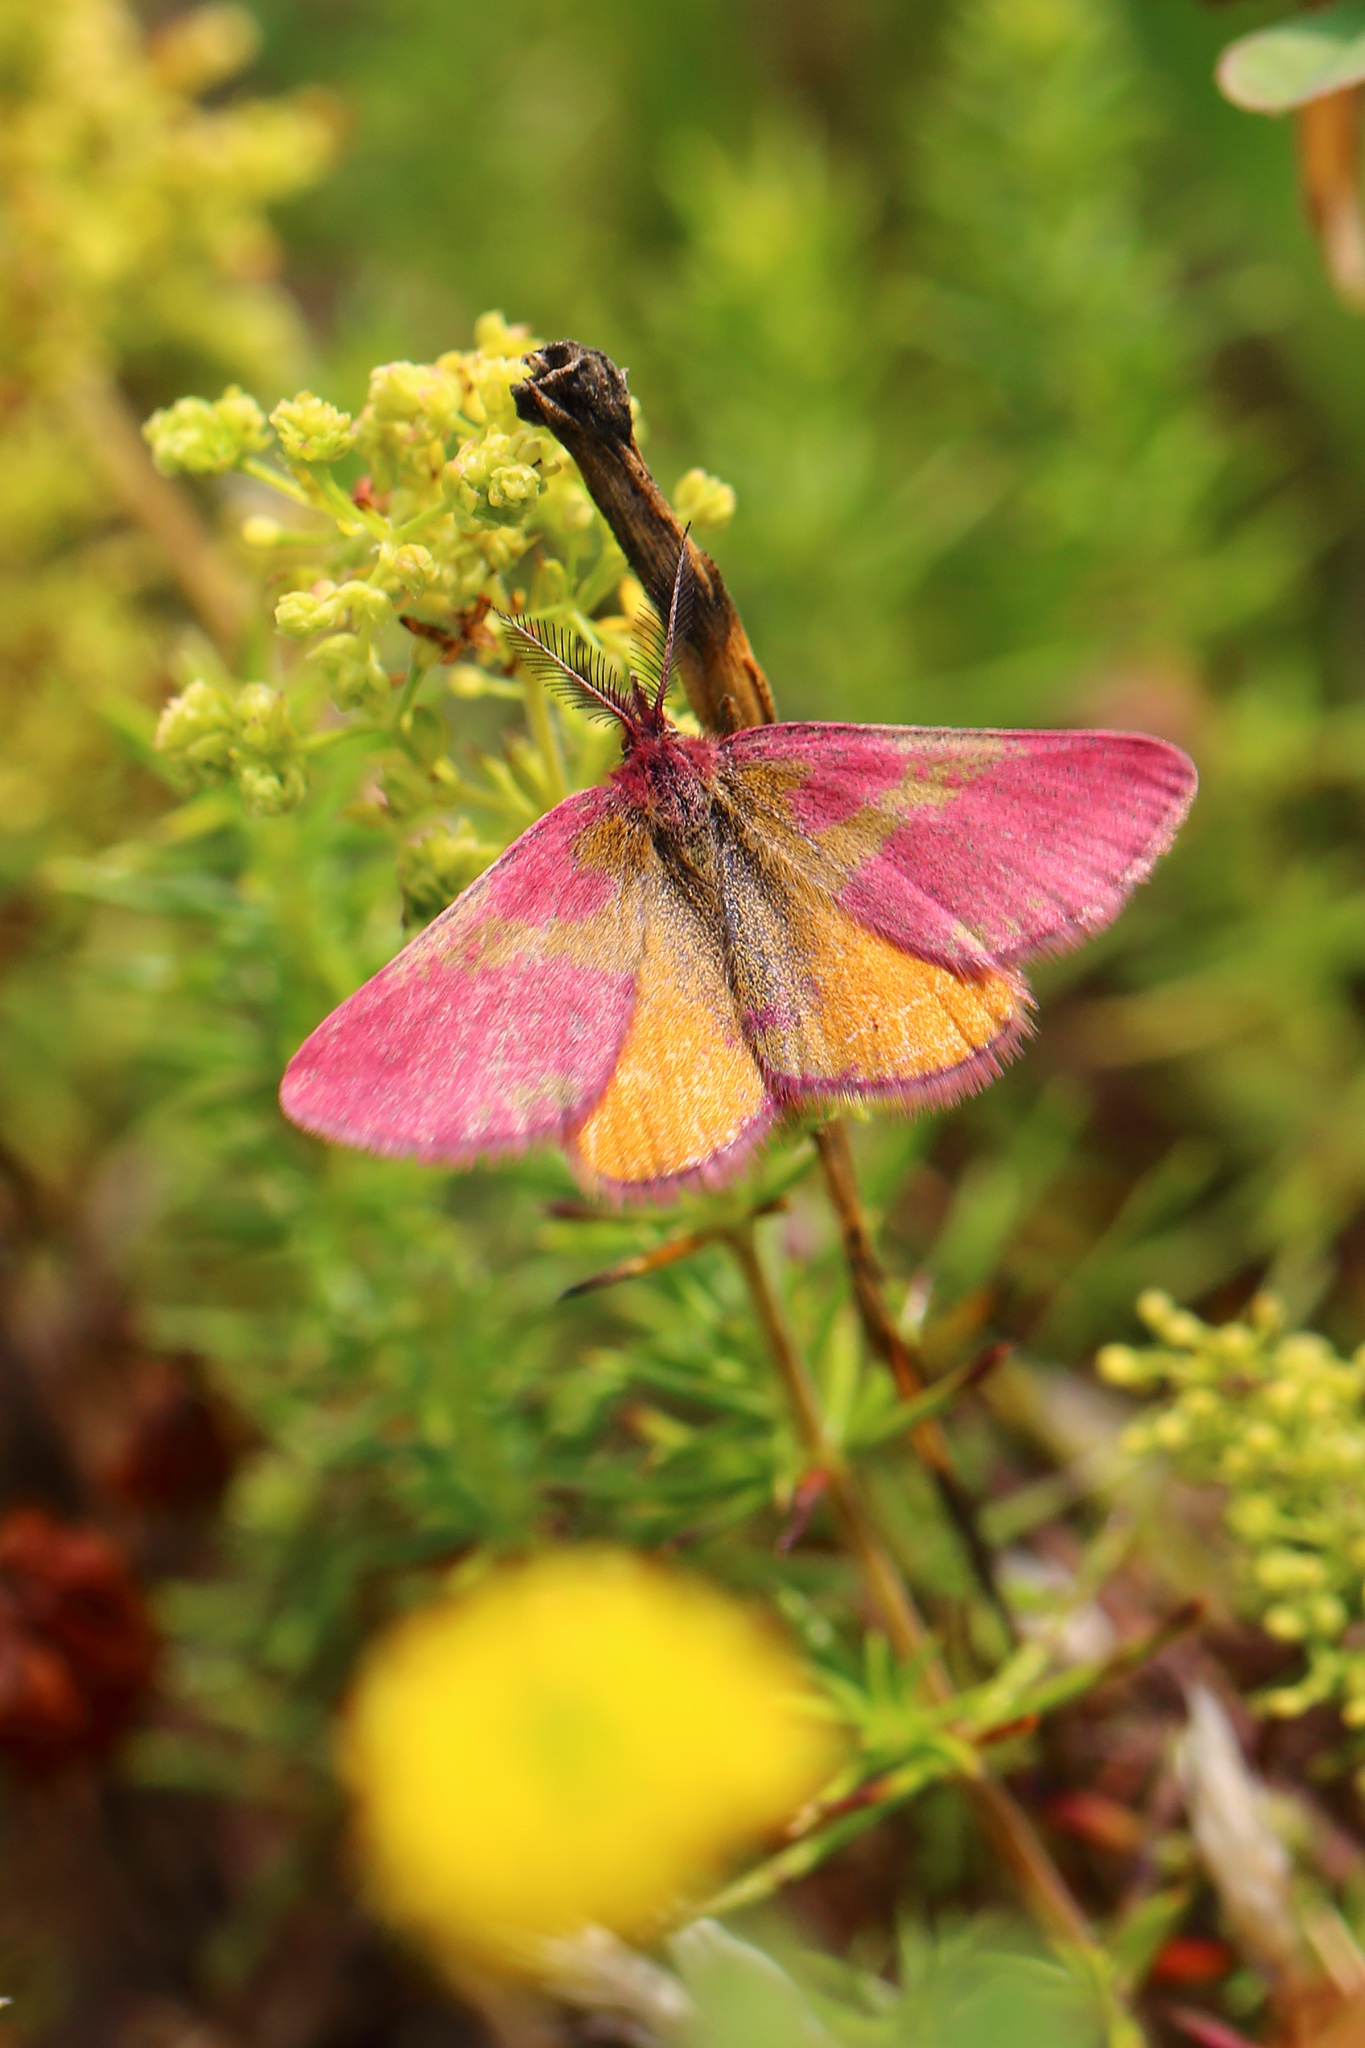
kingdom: Animalia
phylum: Arthropoda
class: Insecta
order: Lepidoptera
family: Geometridae
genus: Lythria
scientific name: Lythria cruentaria
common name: Purple-barred yellow
